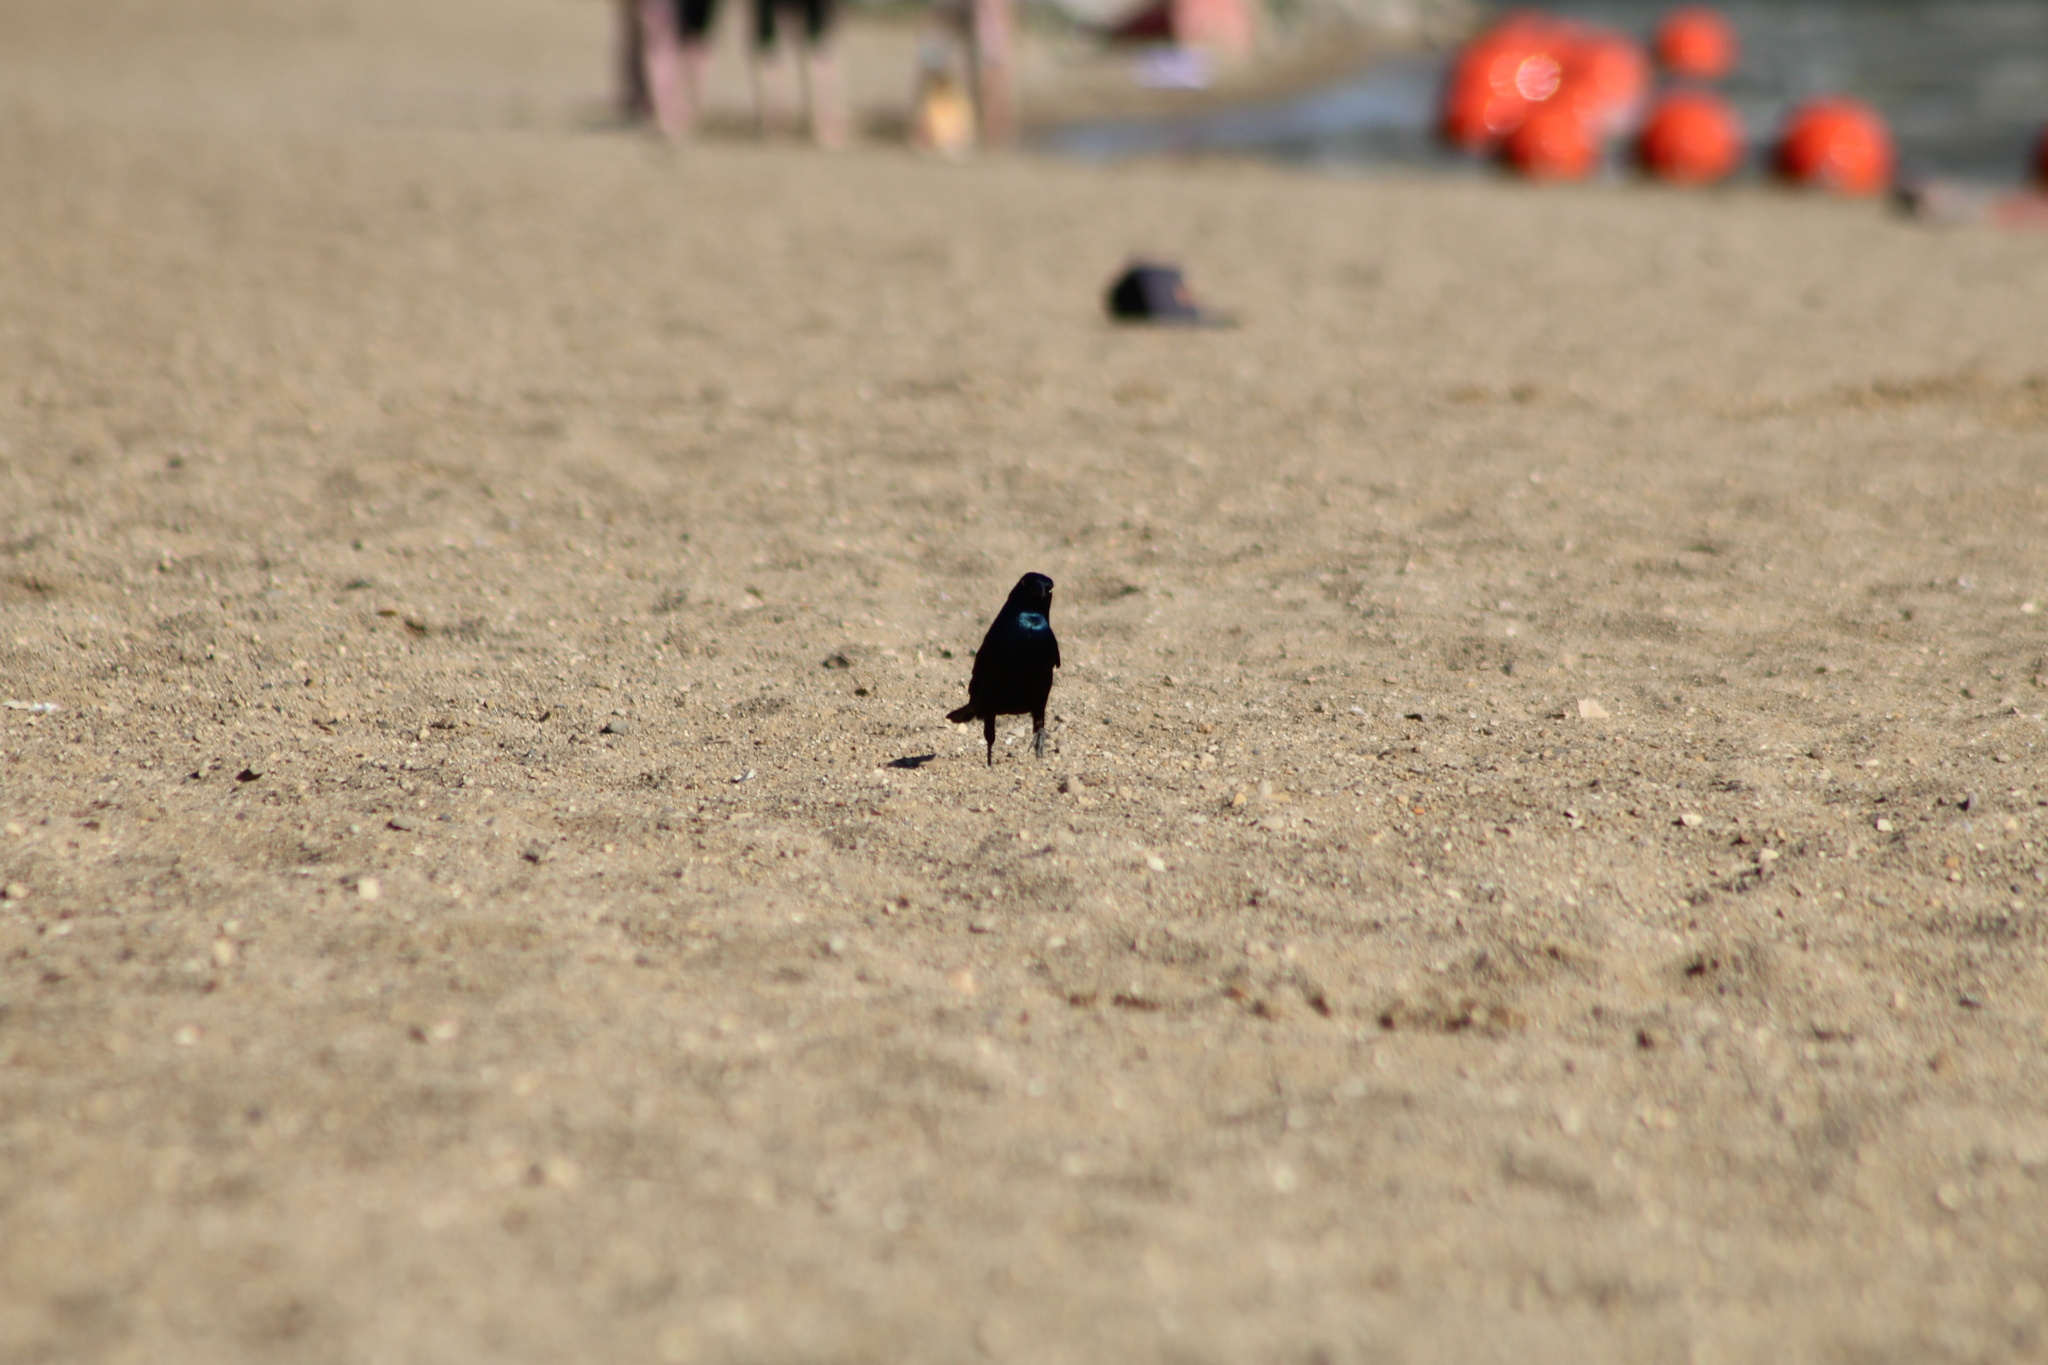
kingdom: Animalia
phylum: Chordata
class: Aves
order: Passeriformes
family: Icteridae
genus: Quiscalus
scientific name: Quiscalus quiscula
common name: Common grackle
